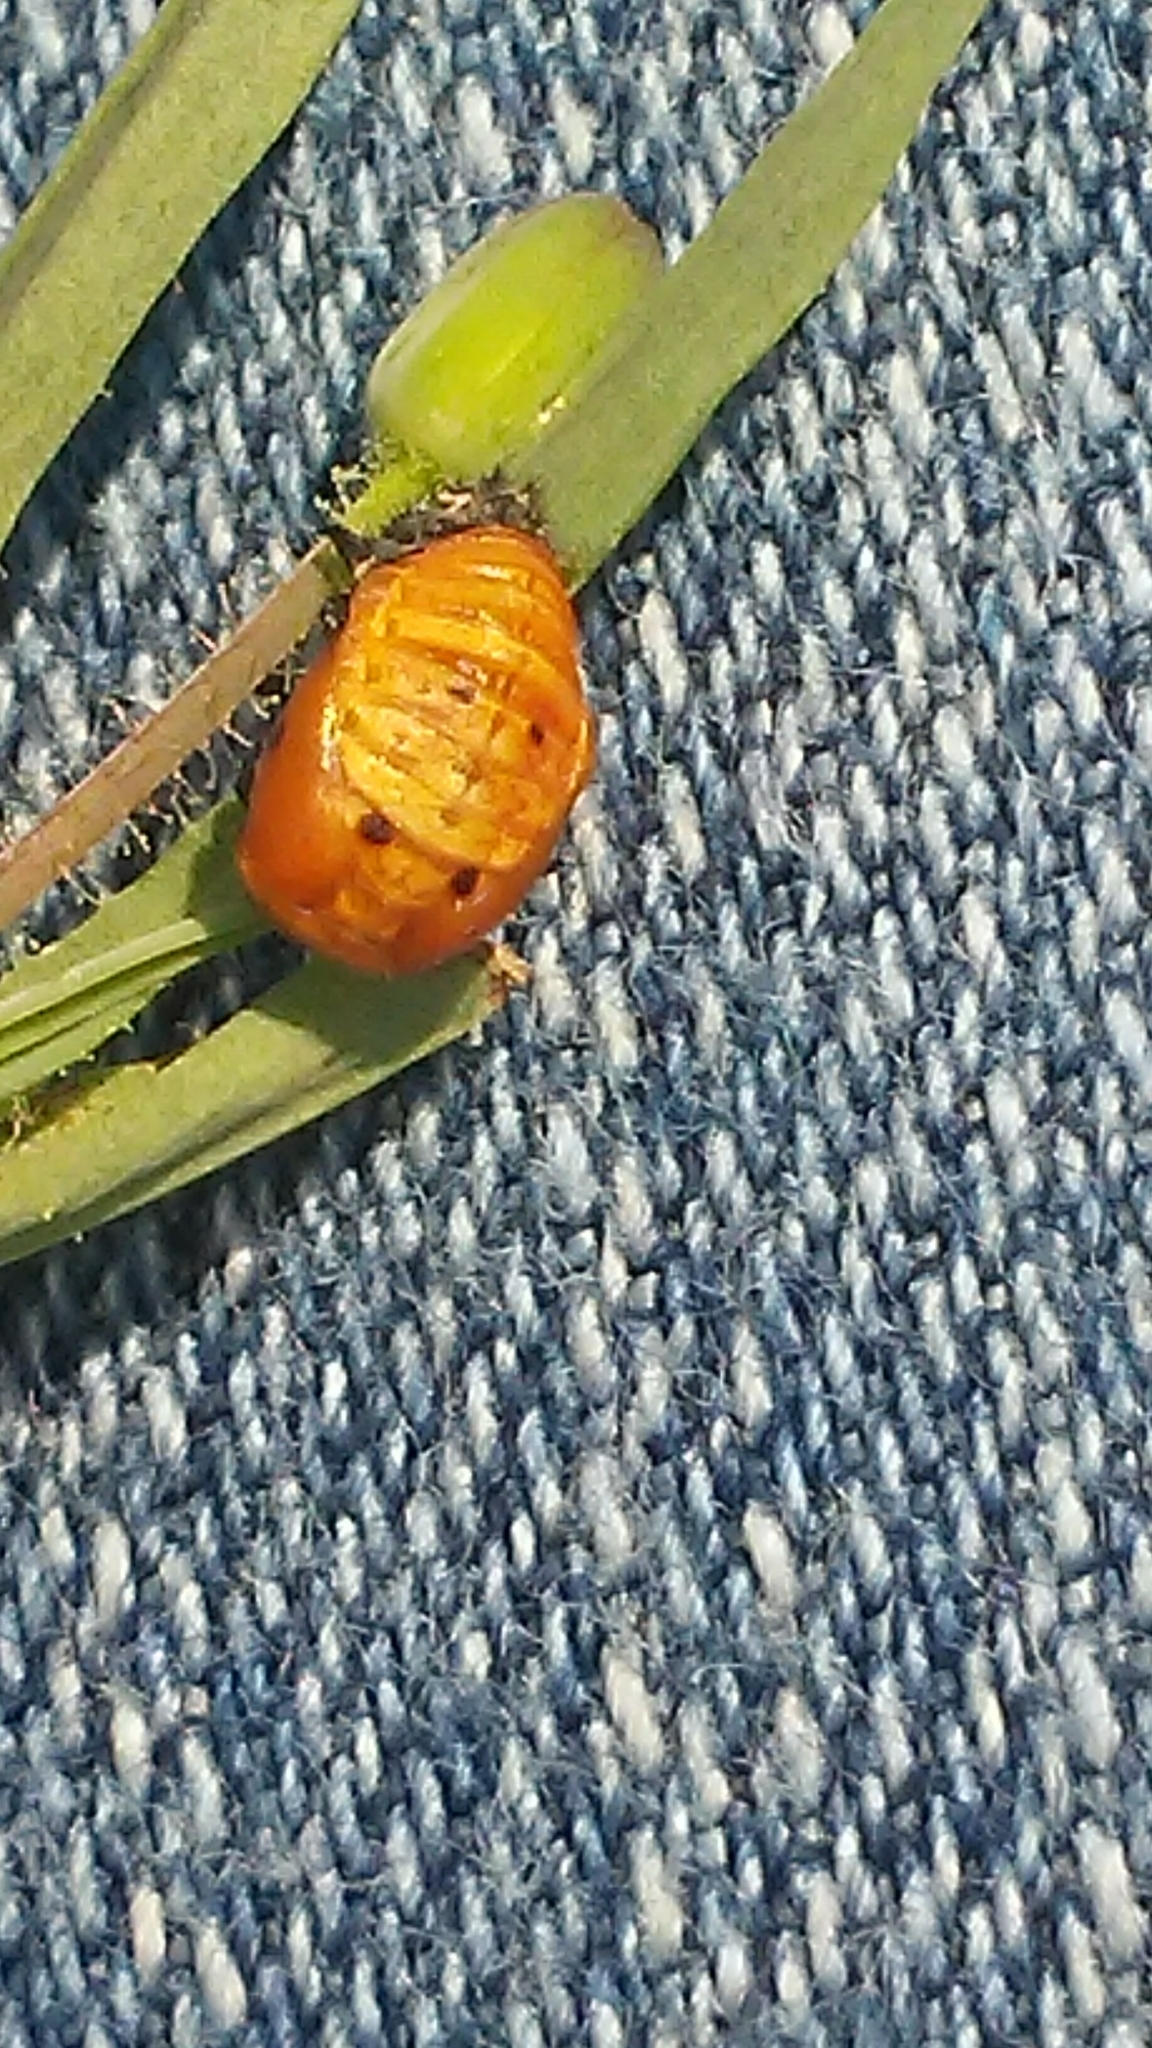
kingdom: Animalia
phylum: Arthropoda
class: Insecta
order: Coleoptera
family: Coccinellidae
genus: Harmonia
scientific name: Harmonia axyridis
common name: Harlequin ladybird
